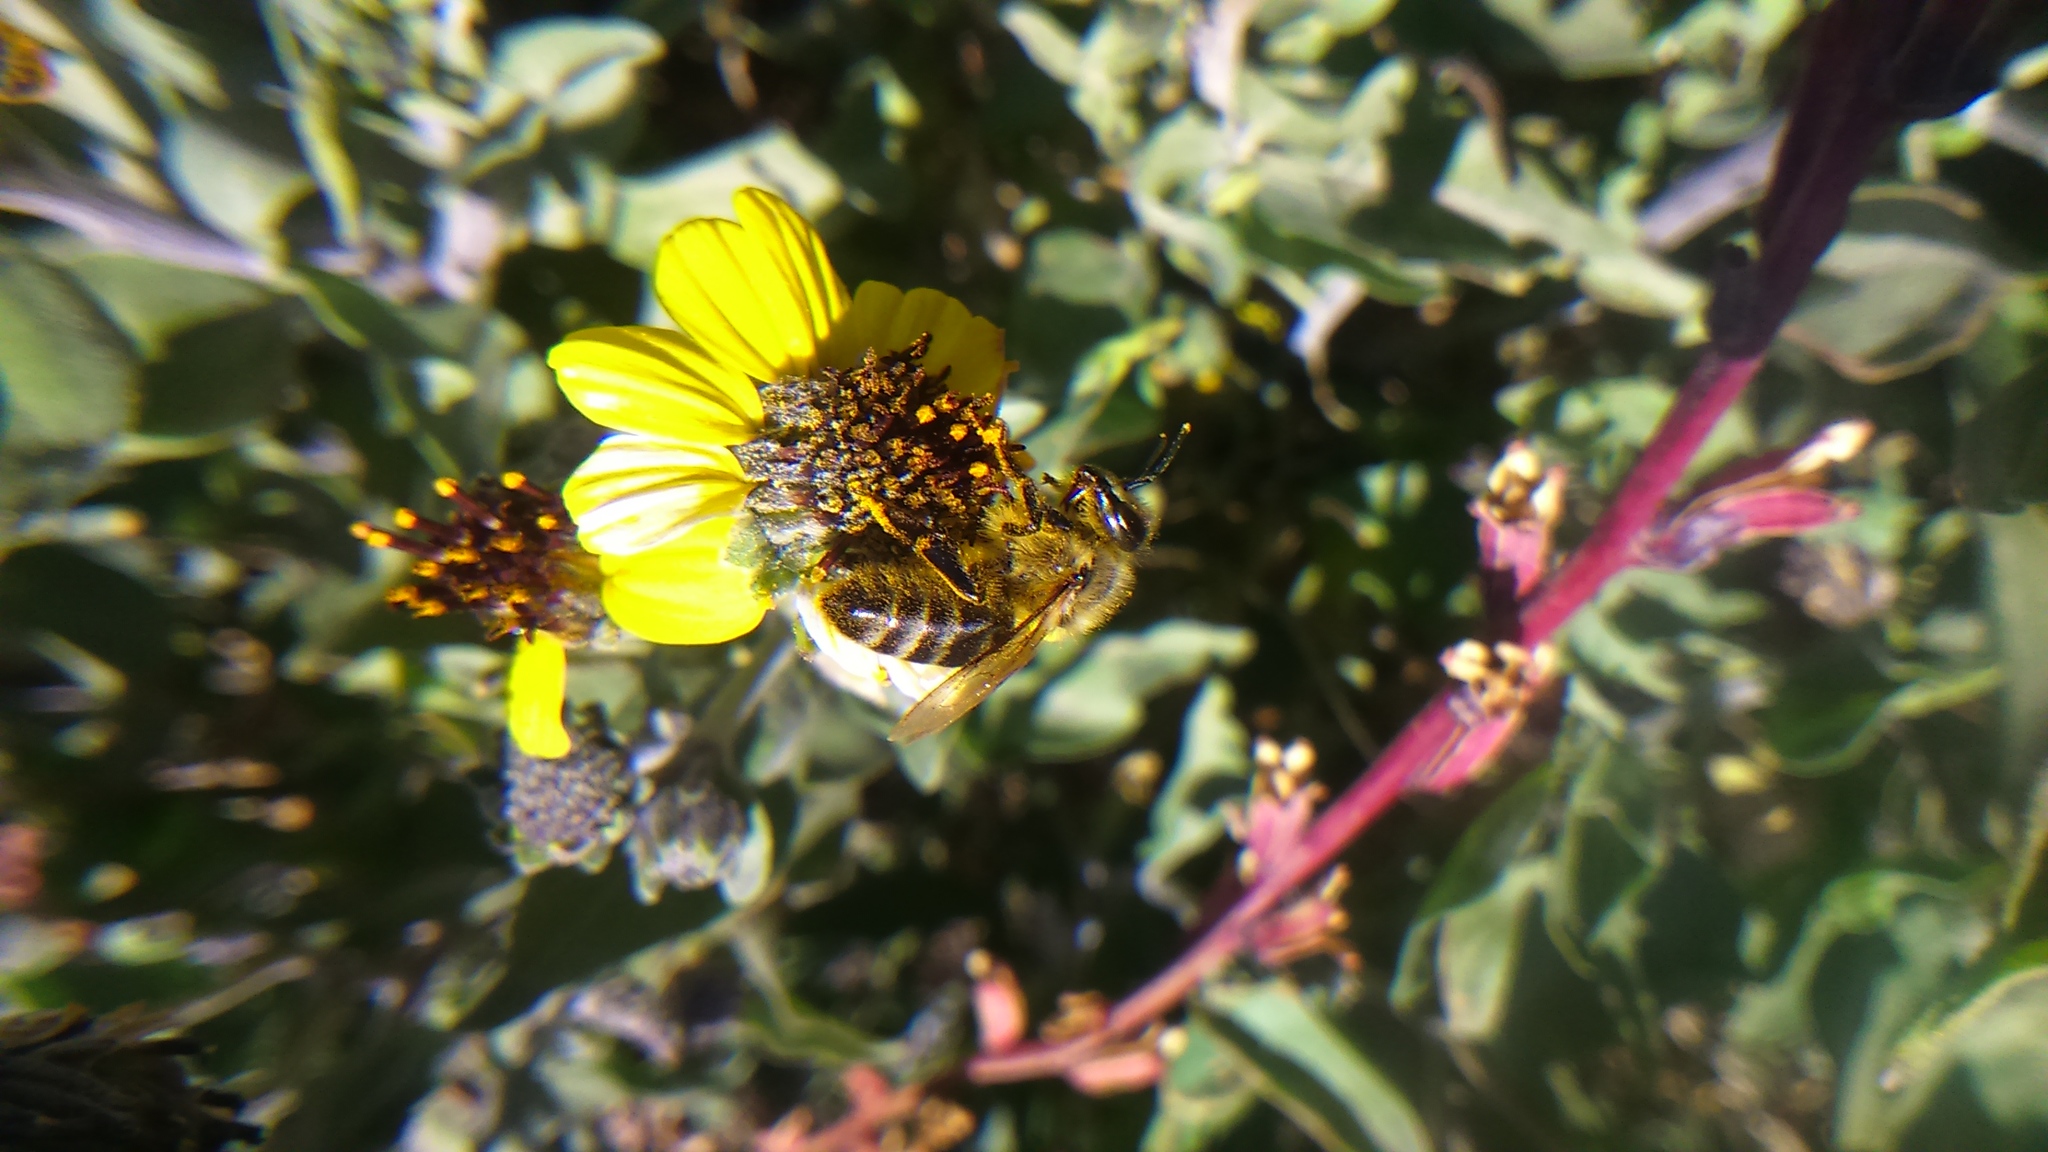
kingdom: Animalia
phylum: Arthropoda
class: Insecta
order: Hymenoptera
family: Apidae
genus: Apis
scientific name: Apis mellifera
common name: Honey bee
